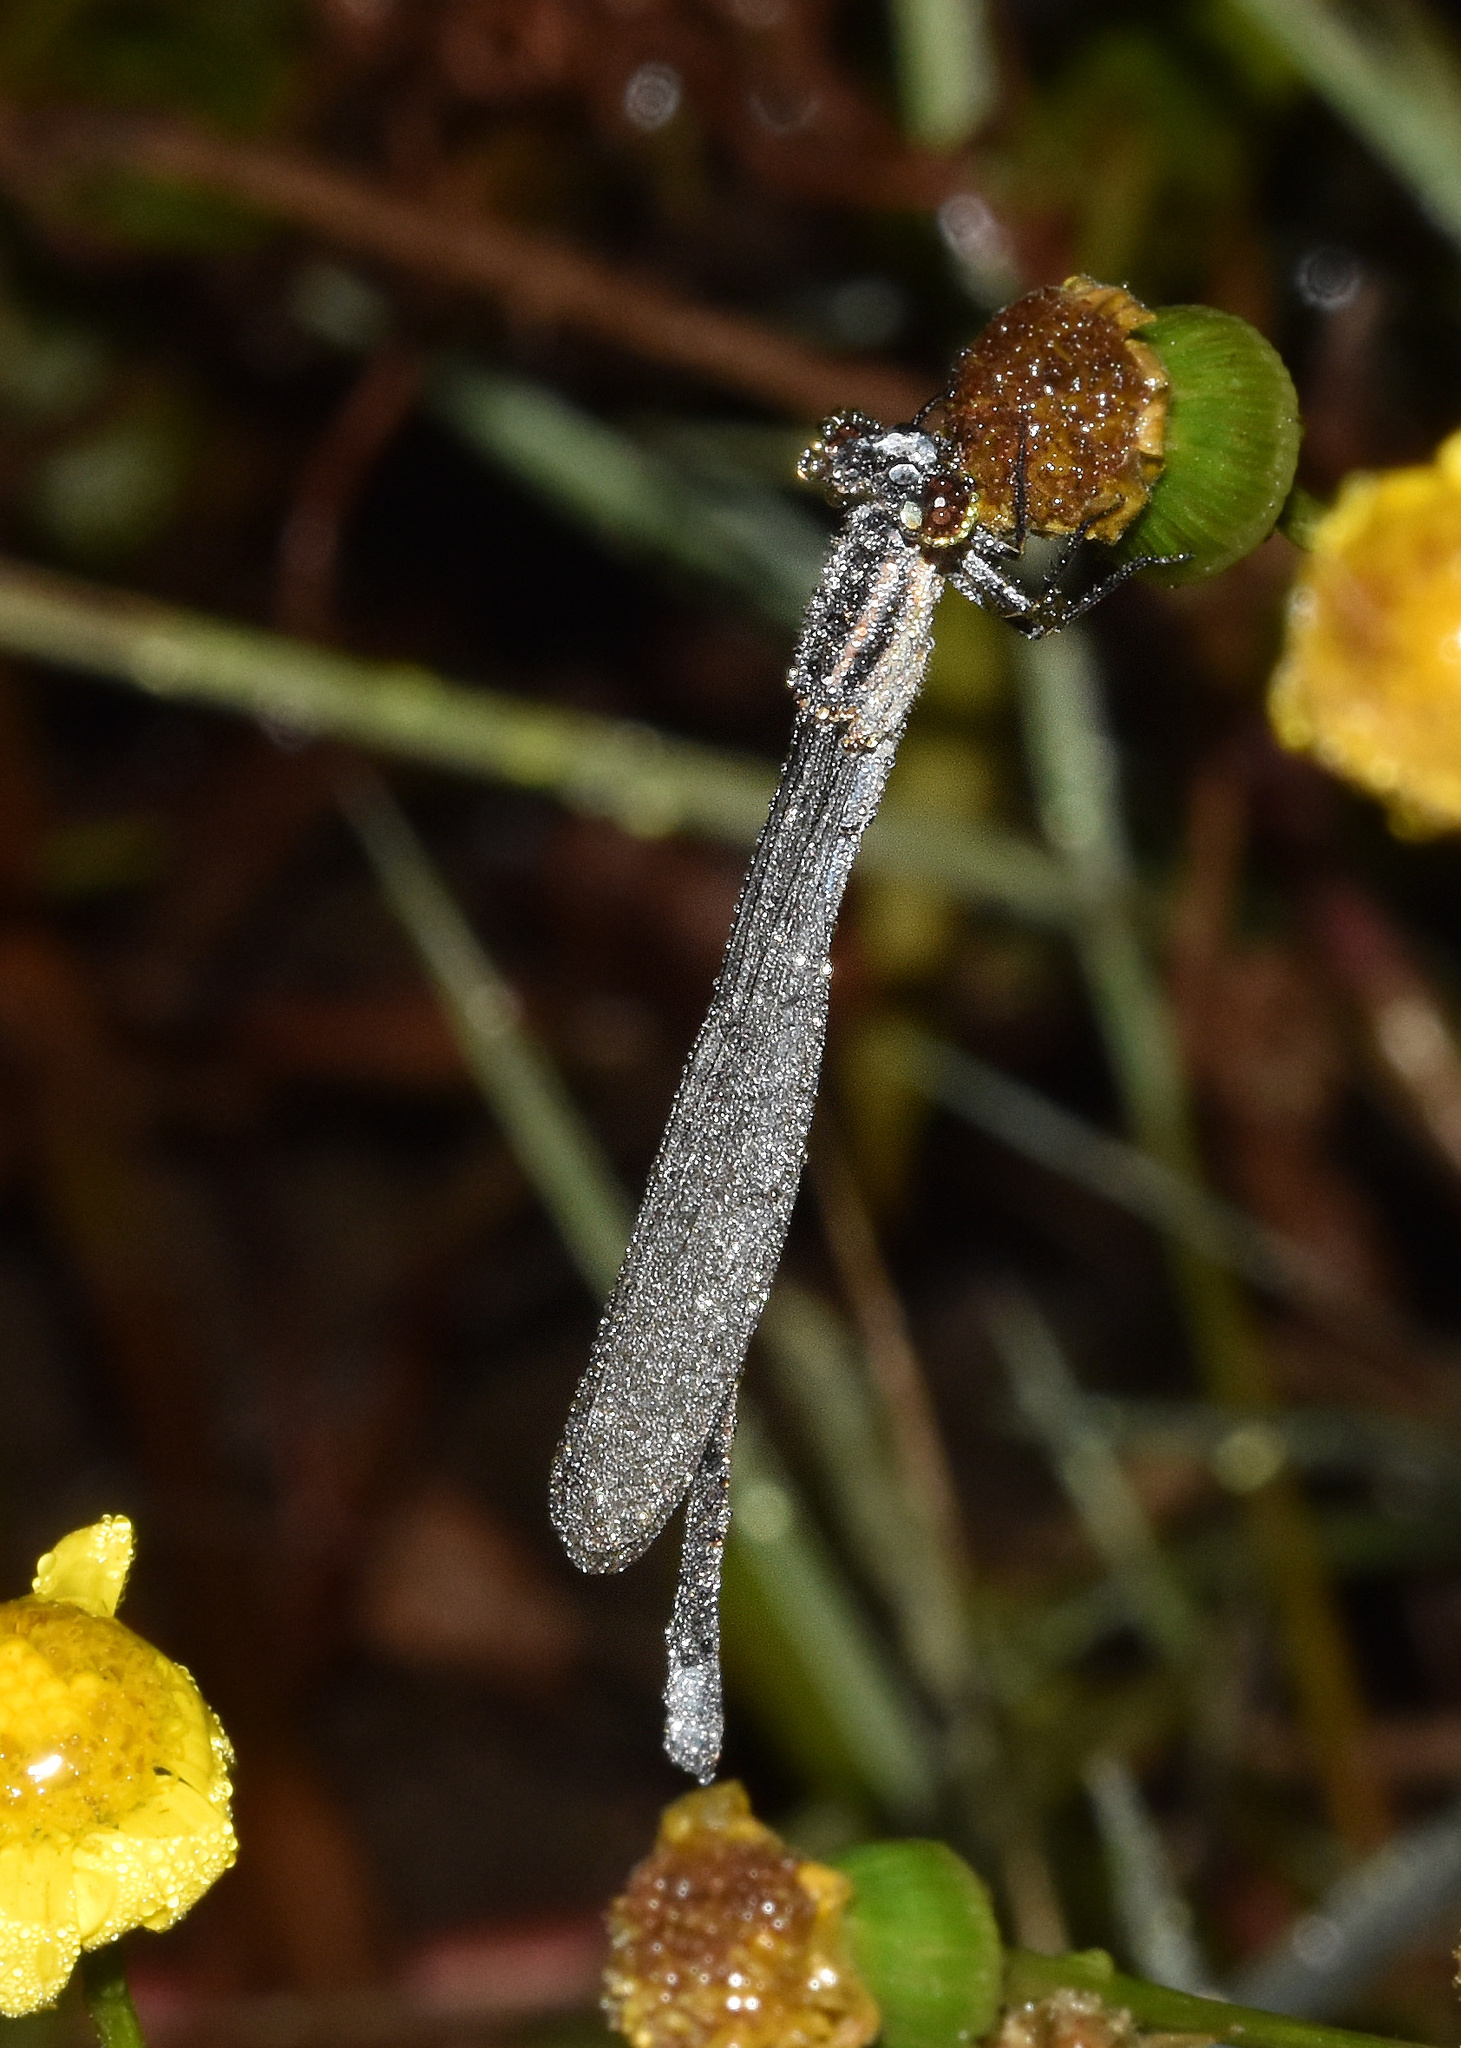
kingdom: Animalia
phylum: Arthropoda
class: Insecta
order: Odonata
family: Coenagrionidae
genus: Pseudagrion
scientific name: Pseudagrion kersteni
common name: Powder-faced sprite
